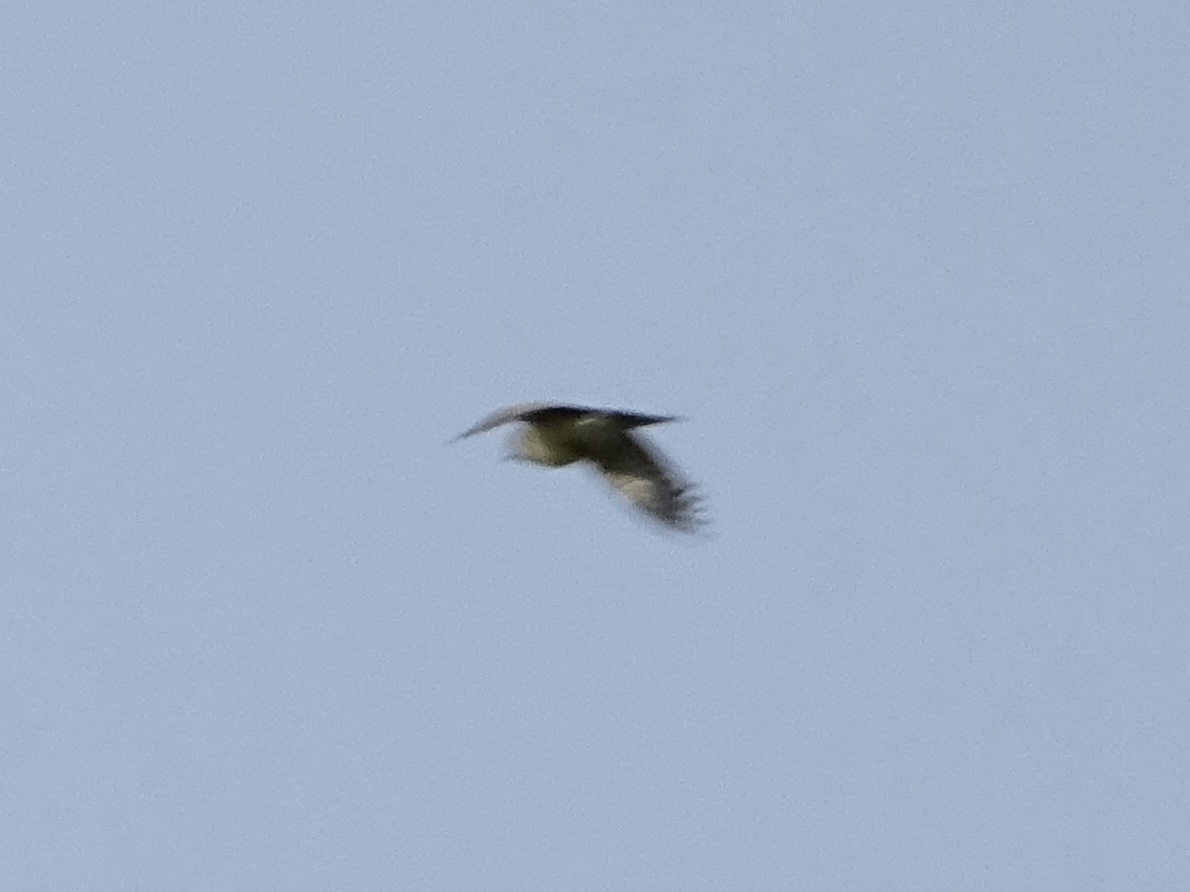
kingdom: Animalia
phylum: Chordata
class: Aves
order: Passeriformes
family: Tyrannidae
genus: Tyrannus
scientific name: Tyrannus verticalis
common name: Western kingbird
